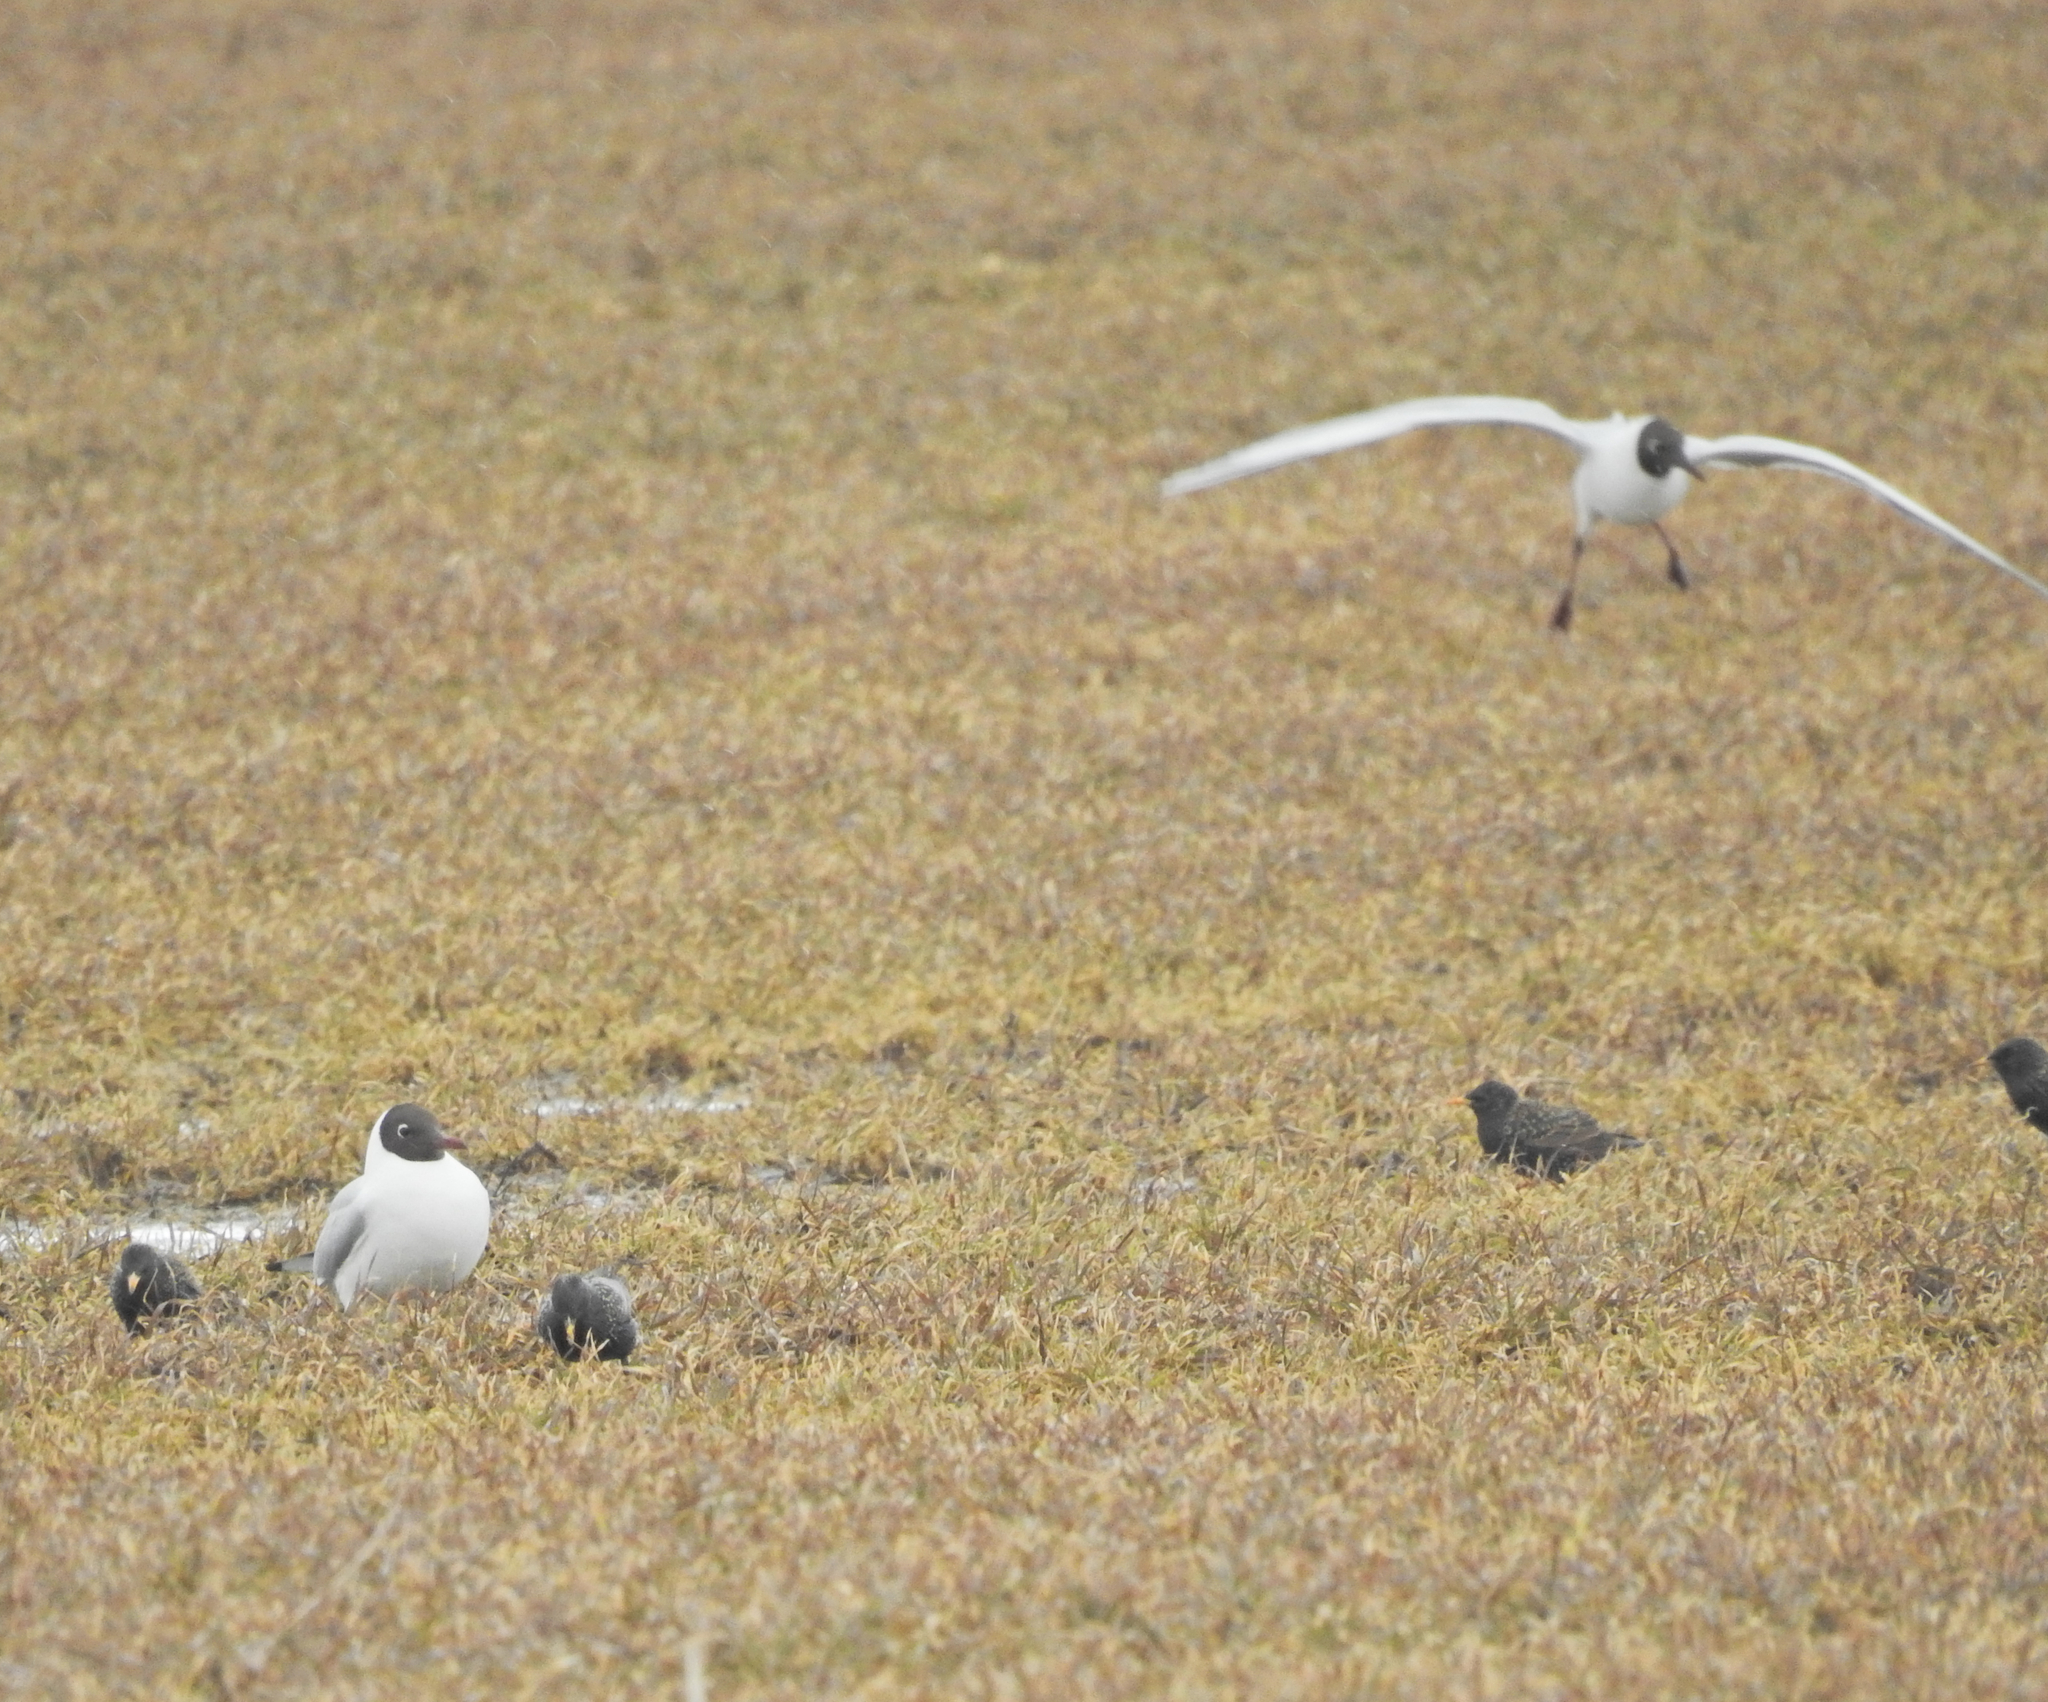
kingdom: Animalia
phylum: Chordata
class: Aves
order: Charadriiformes
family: Laridae
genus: Chroicocephalus
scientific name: Chroicocephalus ridibundus
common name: Black-headed gull
